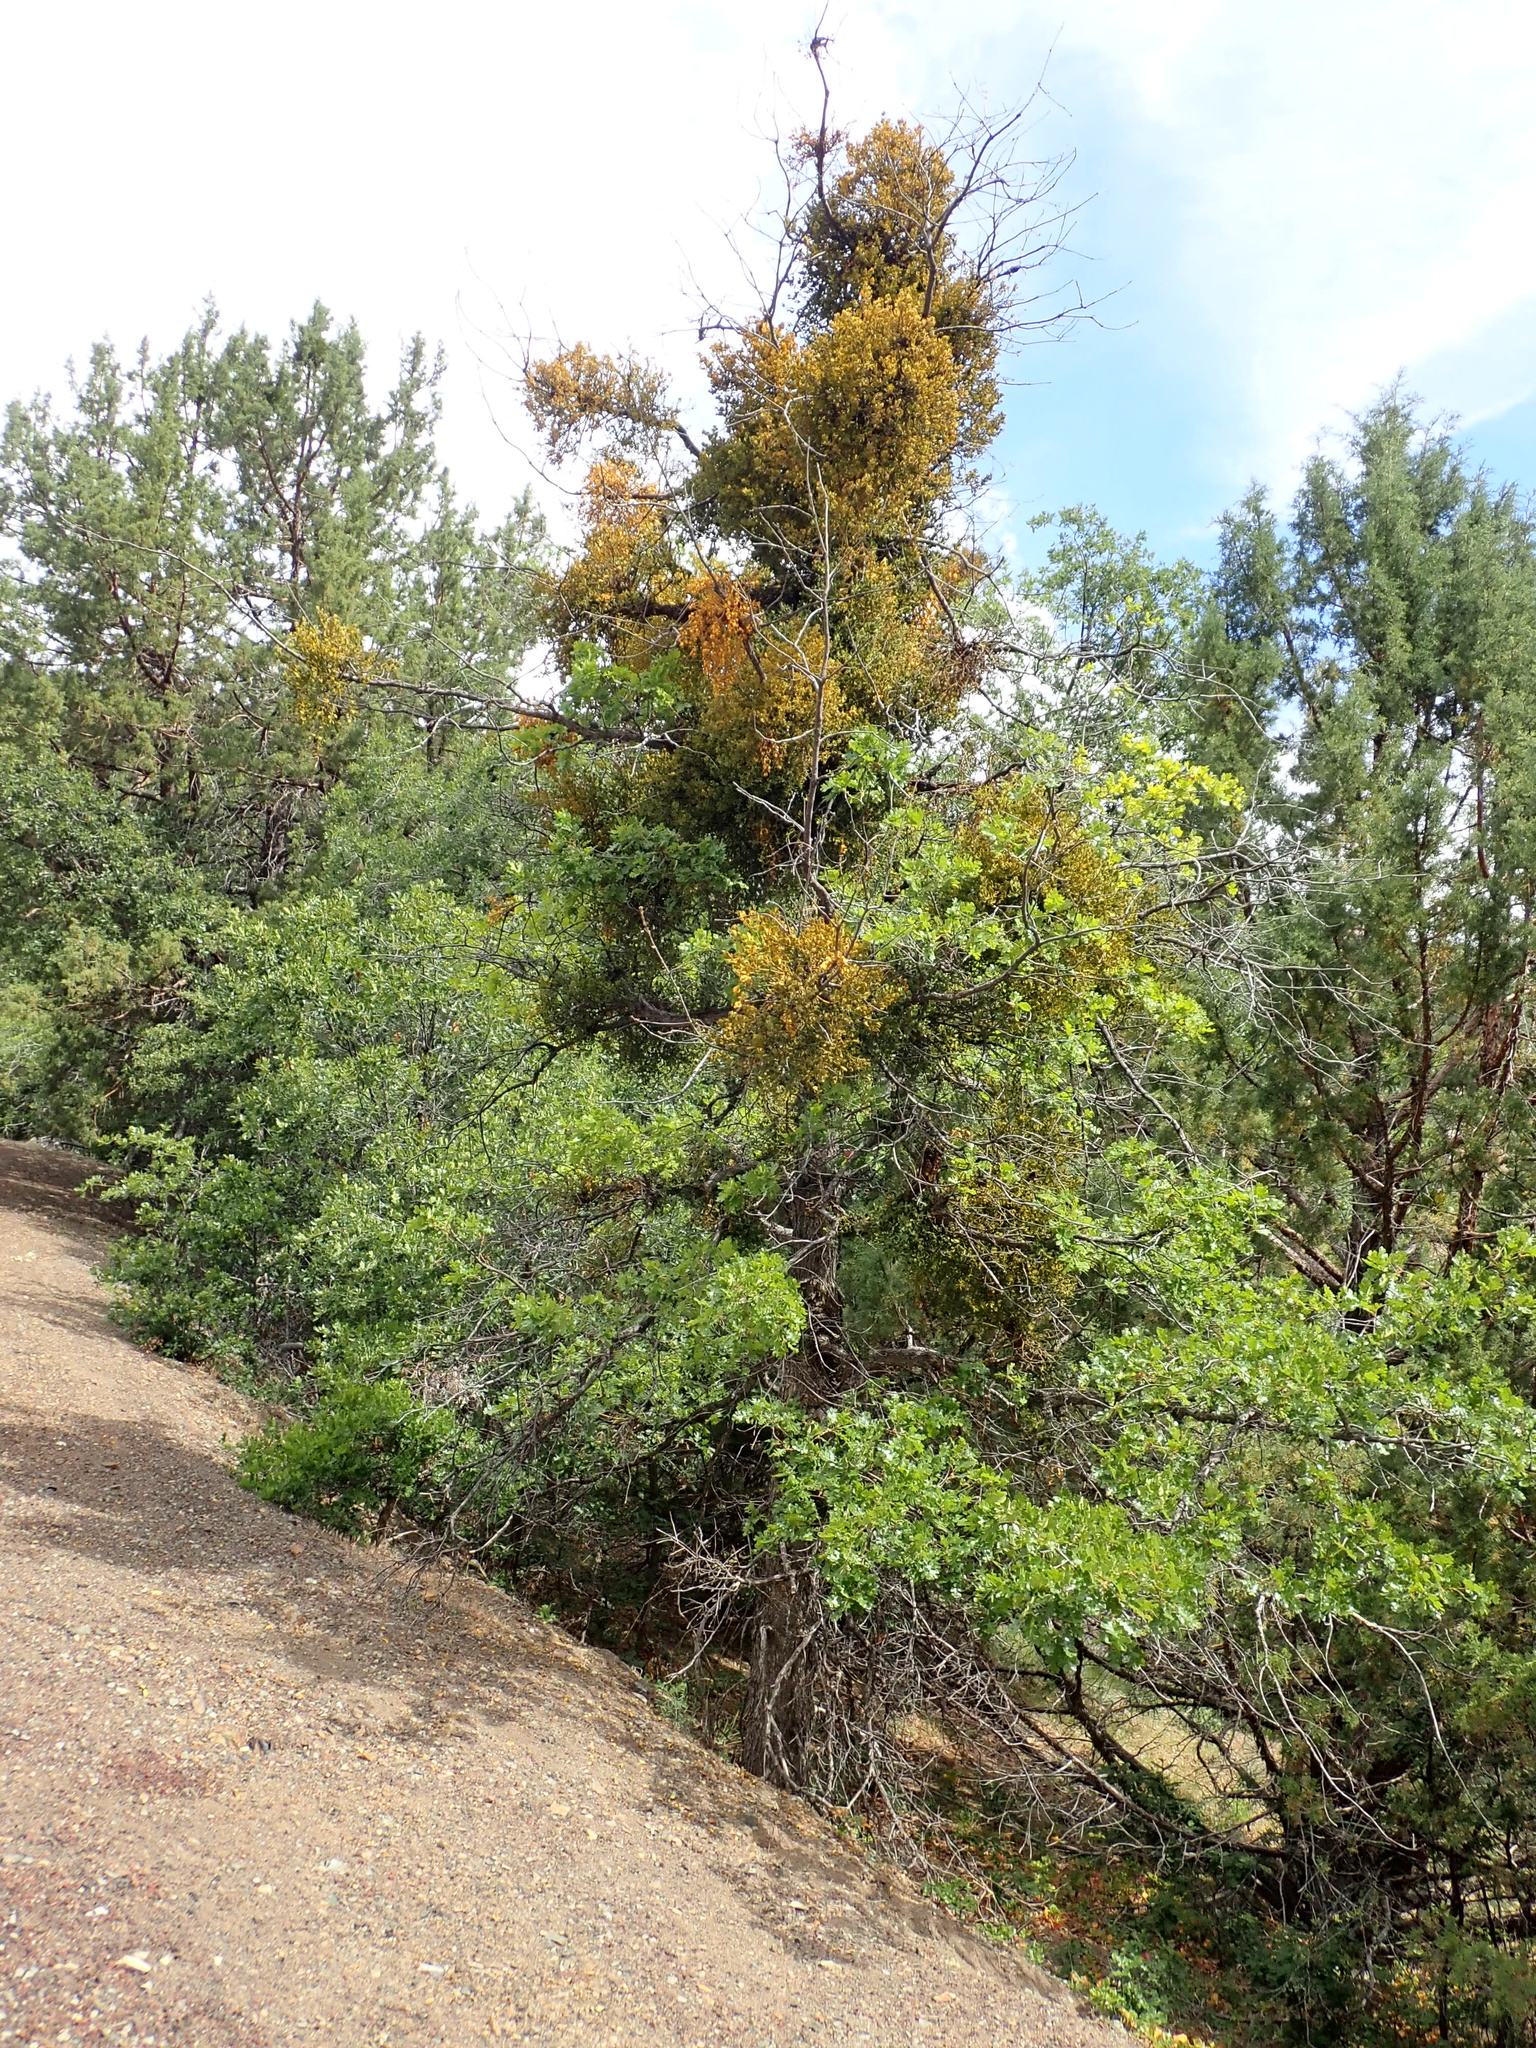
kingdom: Plantae
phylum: Tracheophyta
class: Magnoliopsida
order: Fagales
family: Fagaceae
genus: Quercus
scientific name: Quercus garryana
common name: Garry oak
